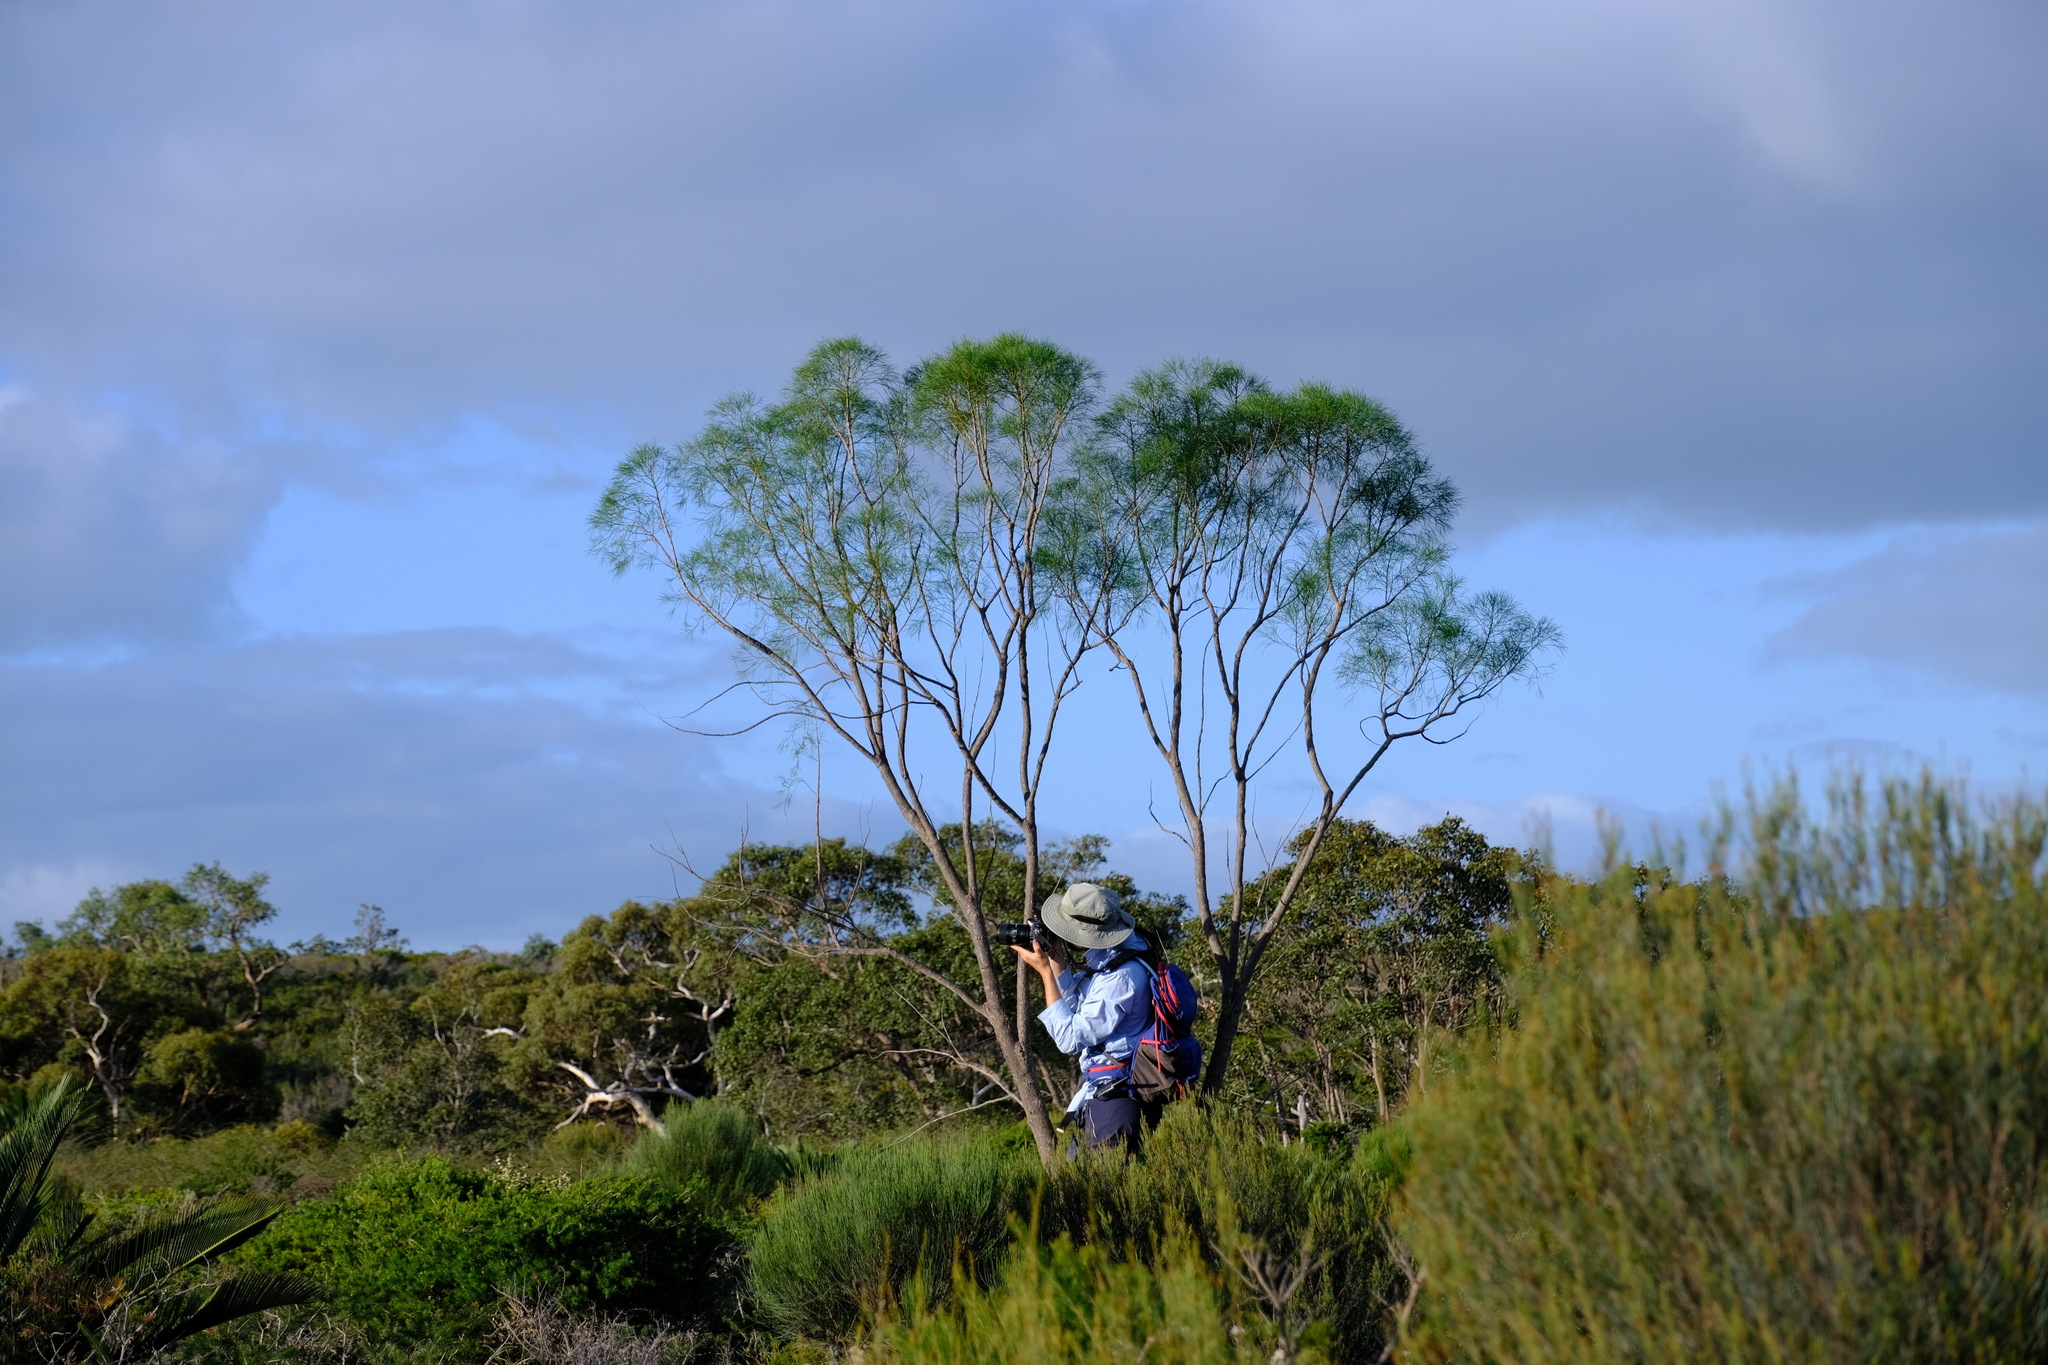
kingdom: Plantae
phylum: Tracheophyta
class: Magnoliopsida
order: Brassicales
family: Gyrostemonaceae
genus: Gyrostemon
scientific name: Gyrostemon ramulosus
